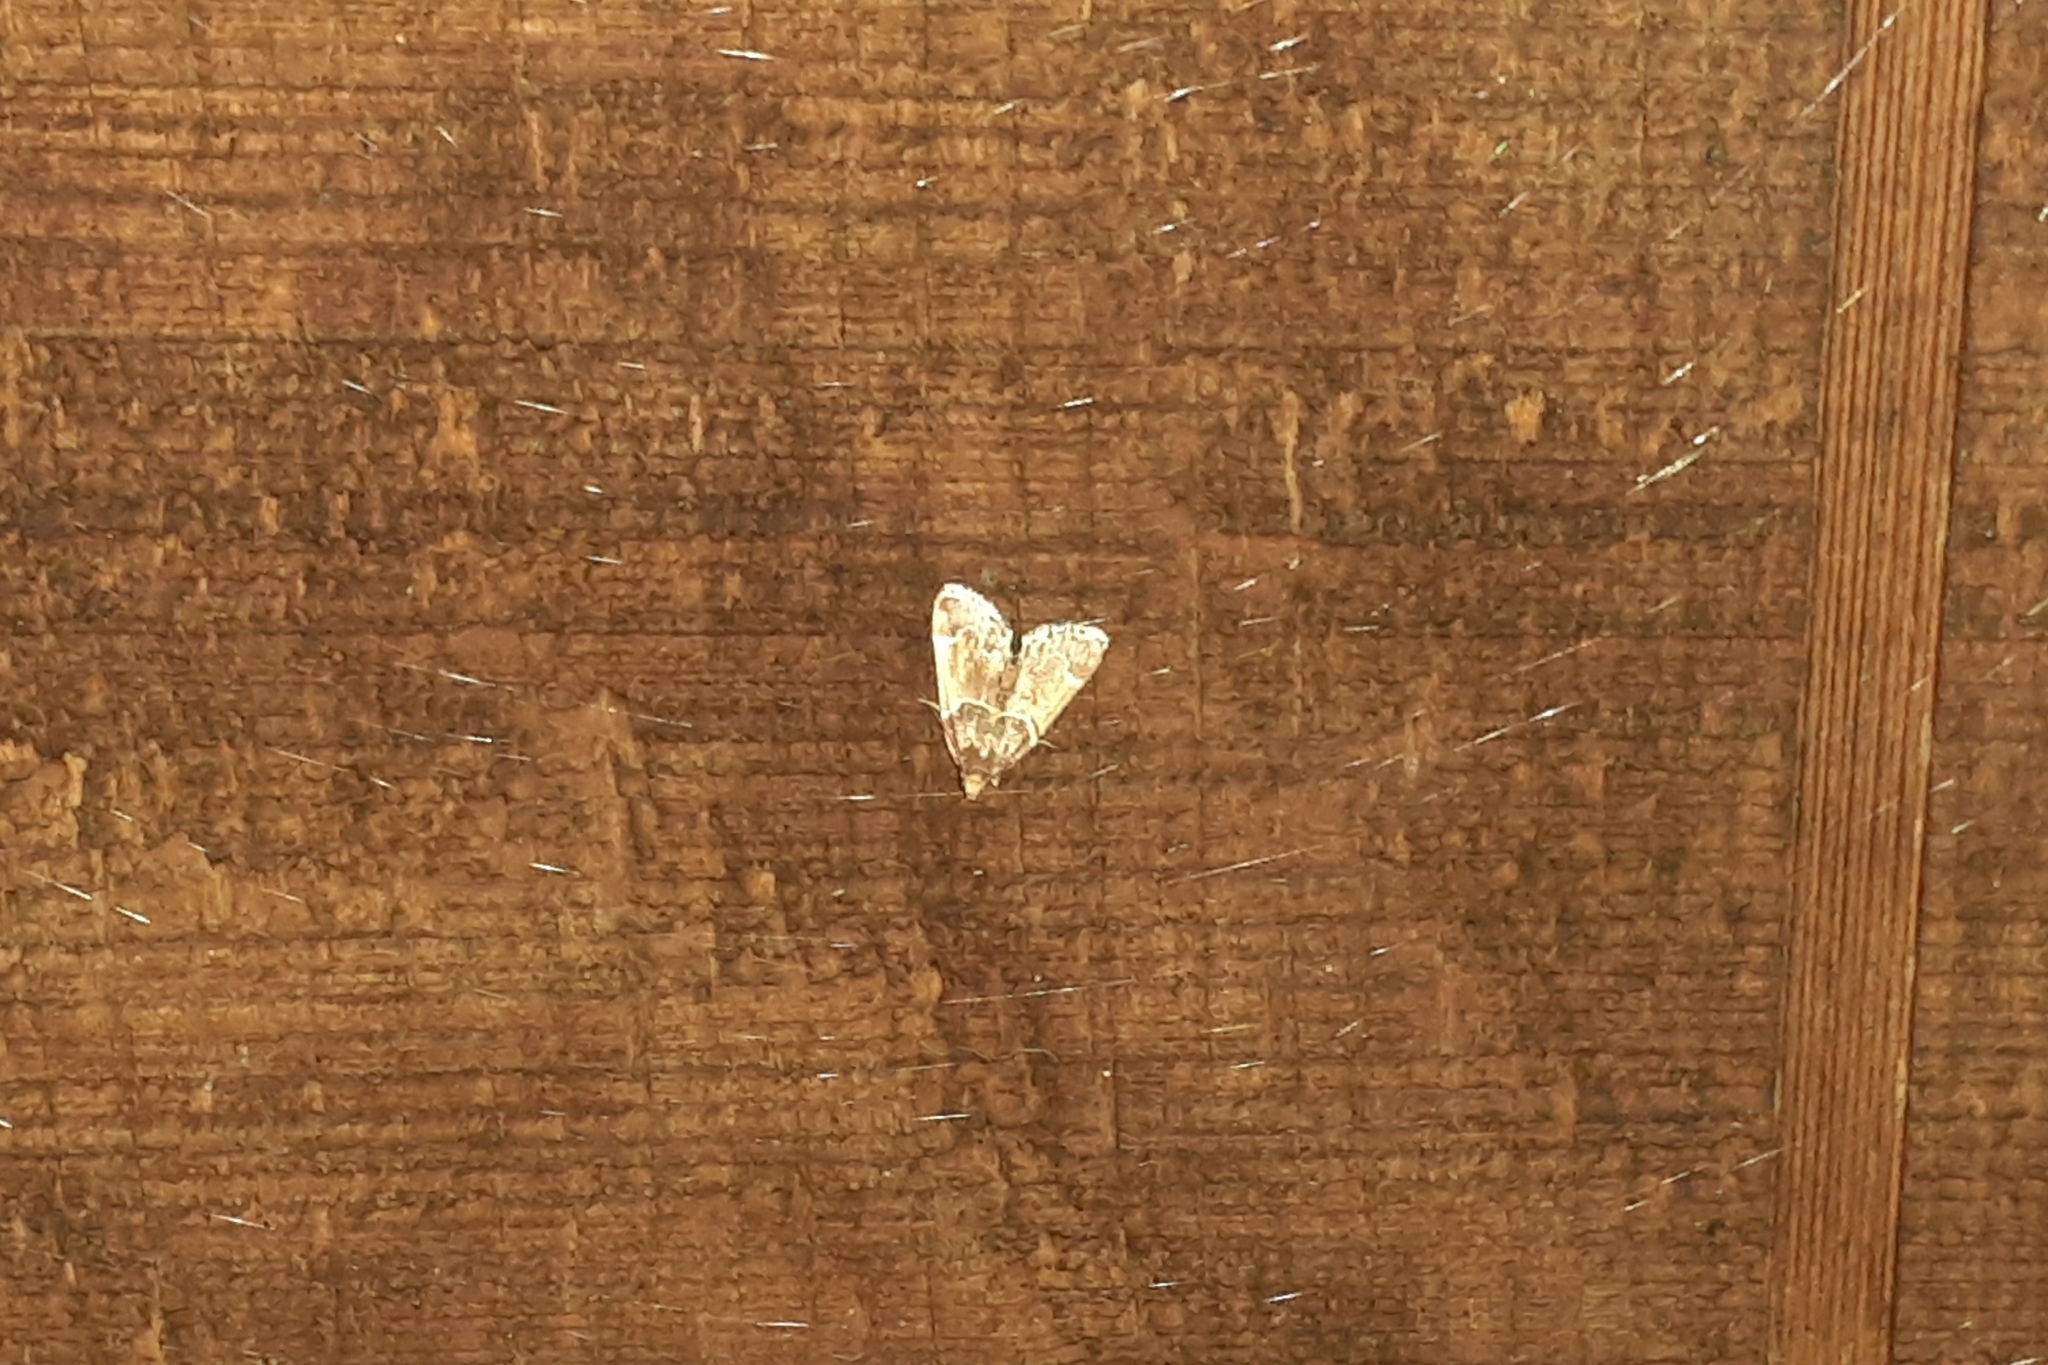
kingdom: Animalia
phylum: Arthropoda
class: Insecta
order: Lepidoptera
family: Pyralidae
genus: Pyralis
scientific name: Pyralis farinalis
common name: Meal moth
